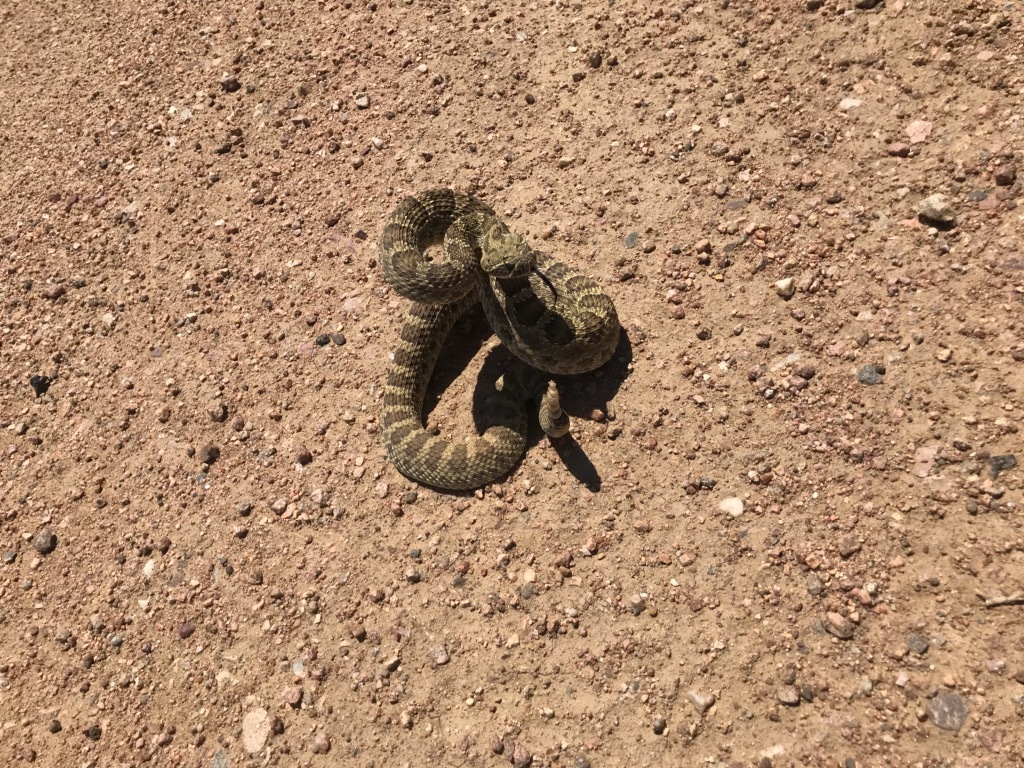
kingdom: Animalia
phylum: Chordata
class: Squamata
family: Viperidae
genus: Crotalus
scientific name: Crotalus viridis
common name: Prairie rattlesnake
